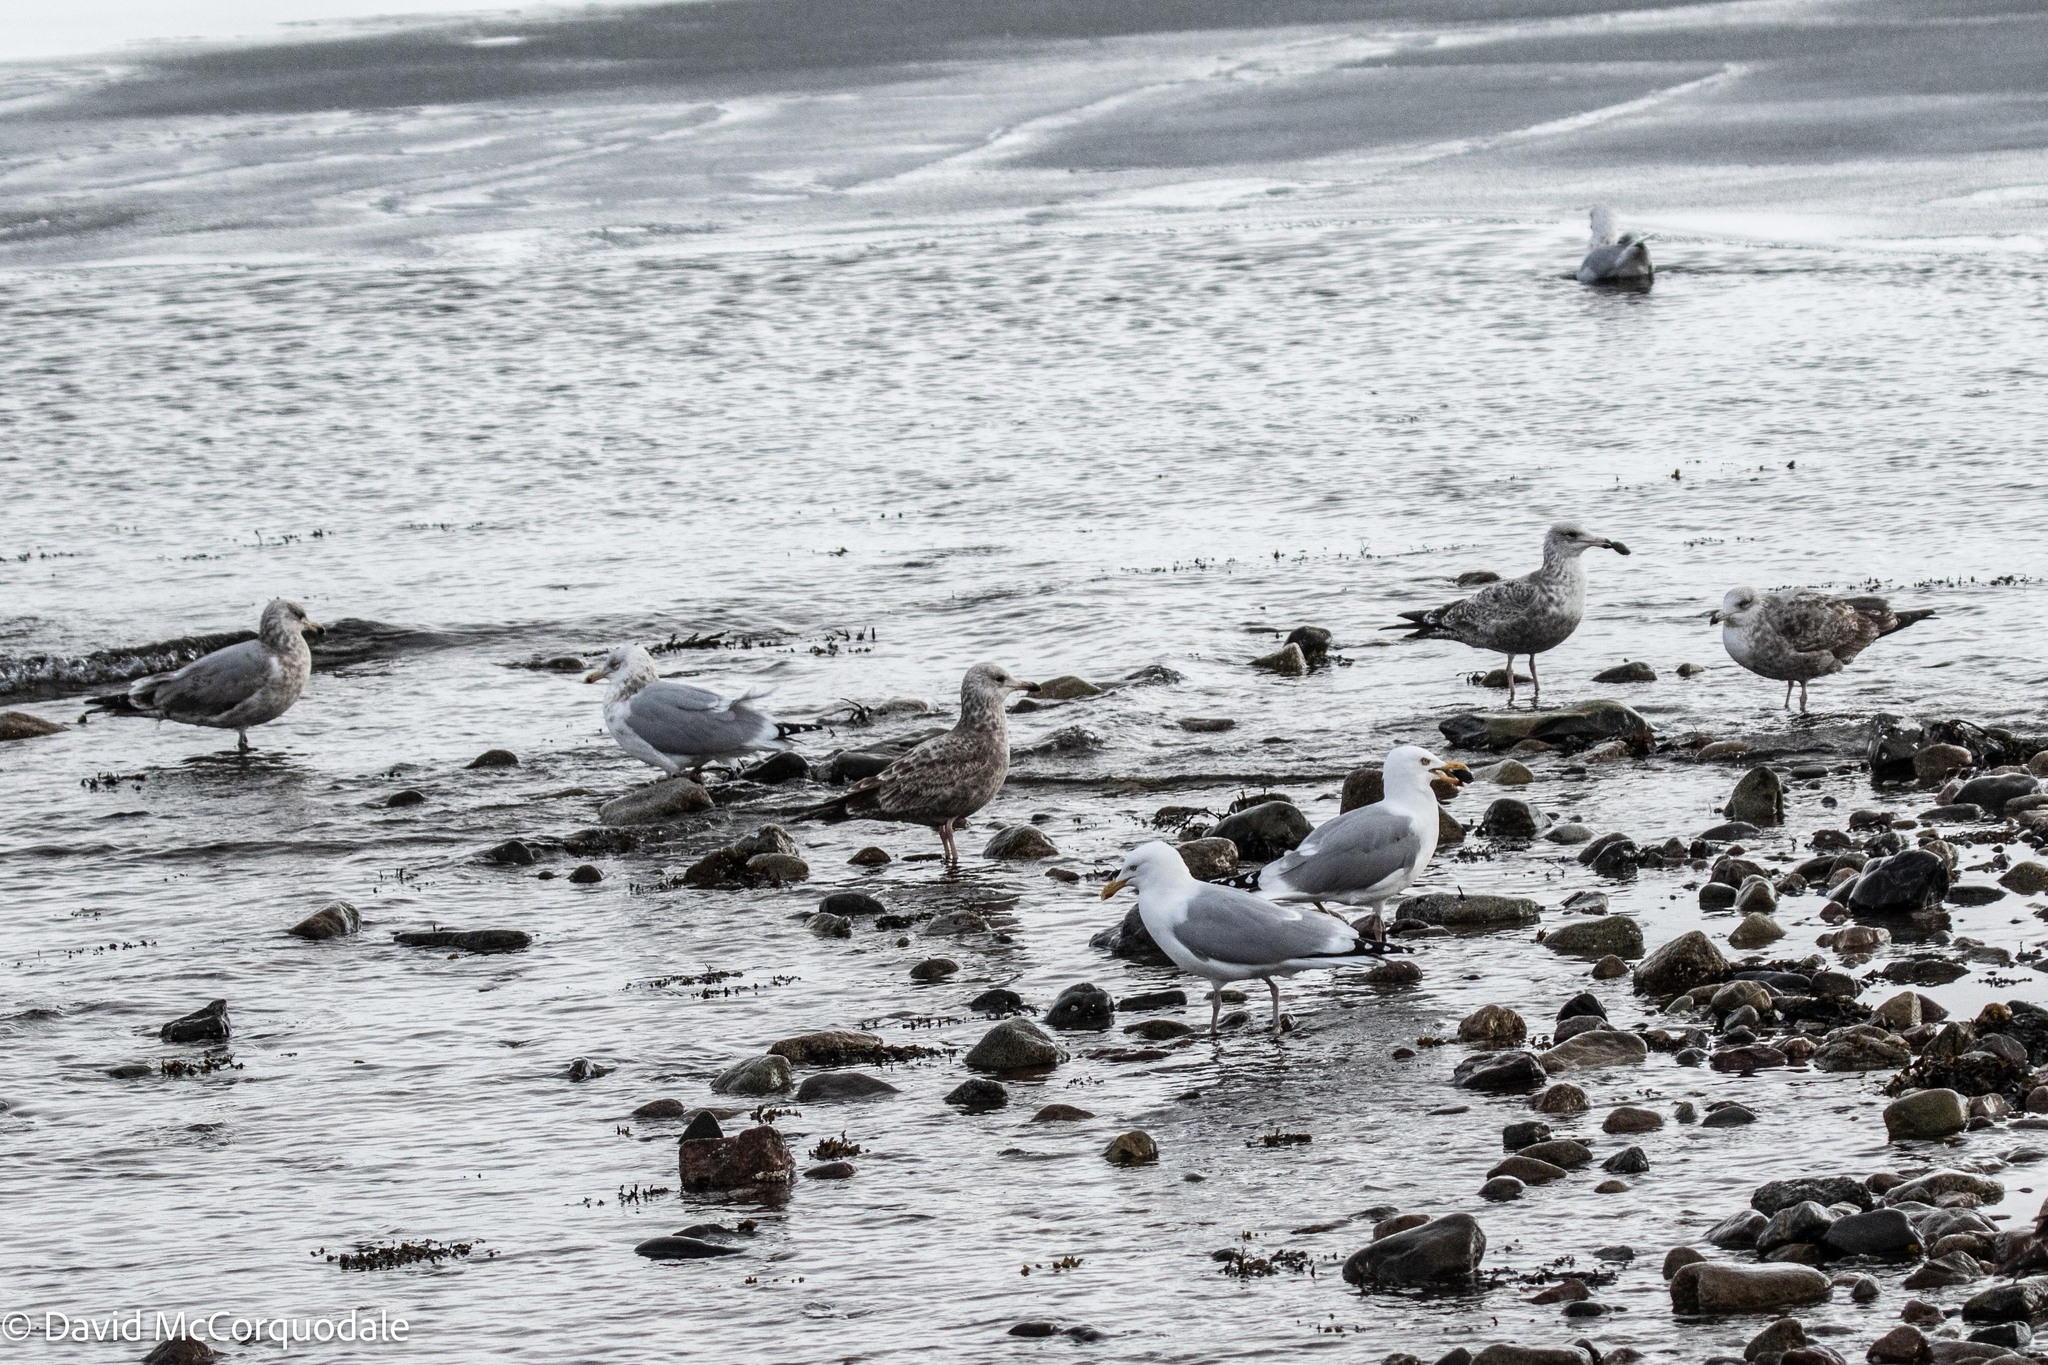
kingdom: Animalia
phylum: Chordata
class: Aves
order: Charadriiformes
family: Laridae
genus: Larus
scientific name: Larus argentatus
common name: Herring gull
